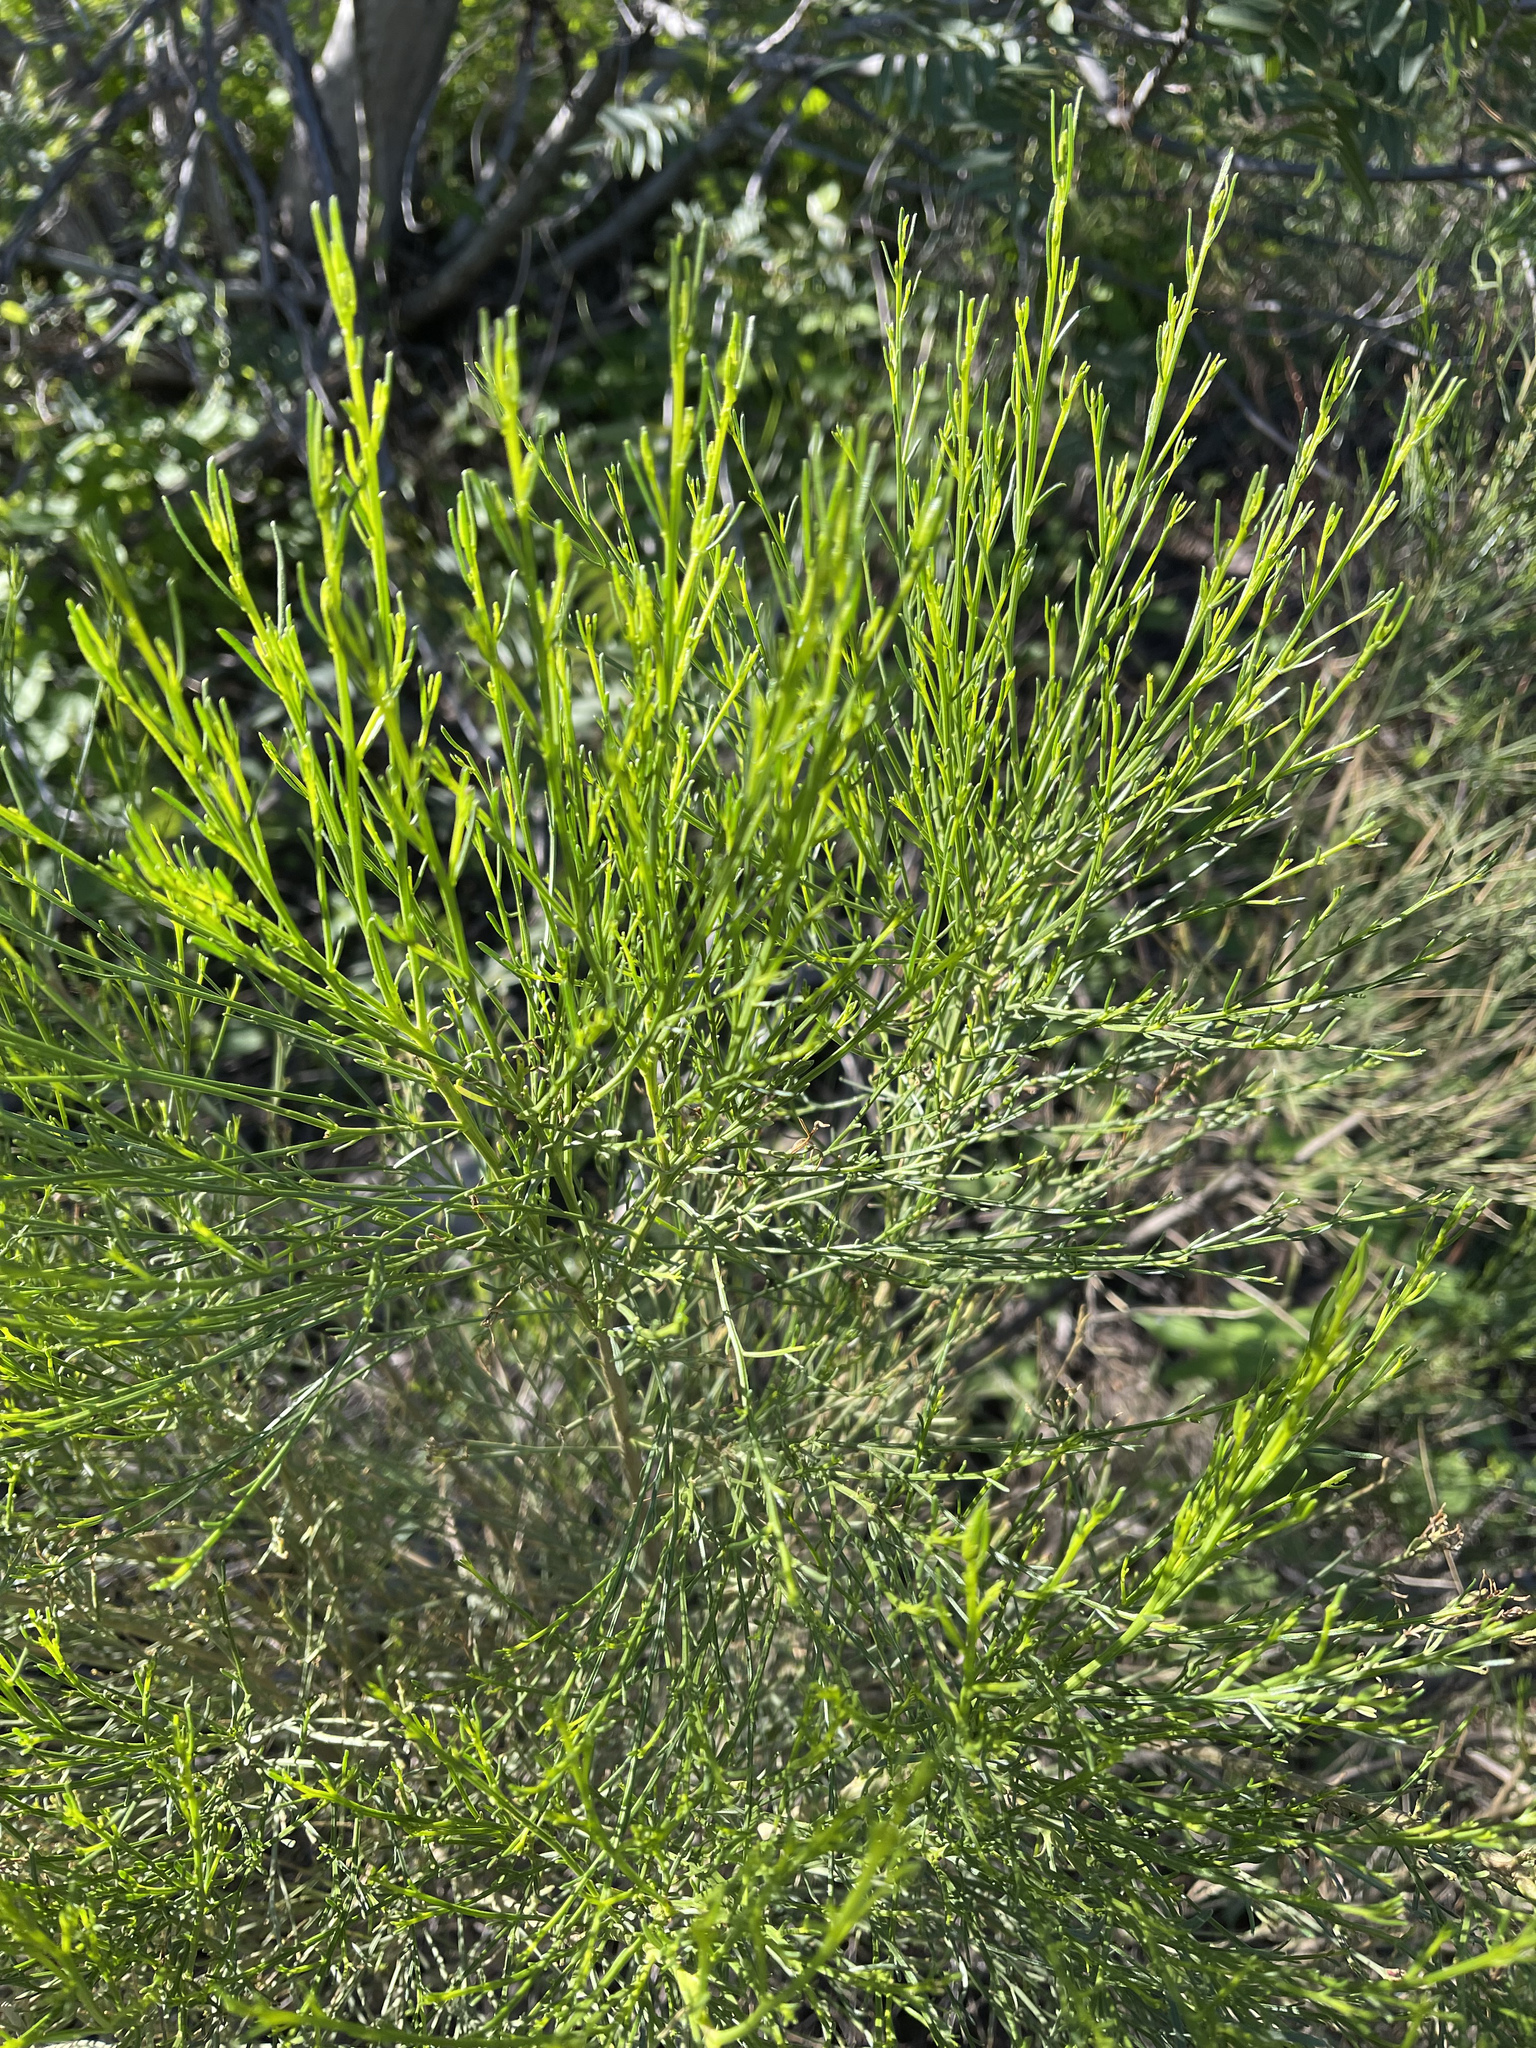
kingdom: Plantae
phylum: Tracheophyta
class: Magnoliopsida
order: Asterales
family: Asteraceae
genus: Baccharis
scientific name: Baccharis sarothroides
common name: Desert-broom
